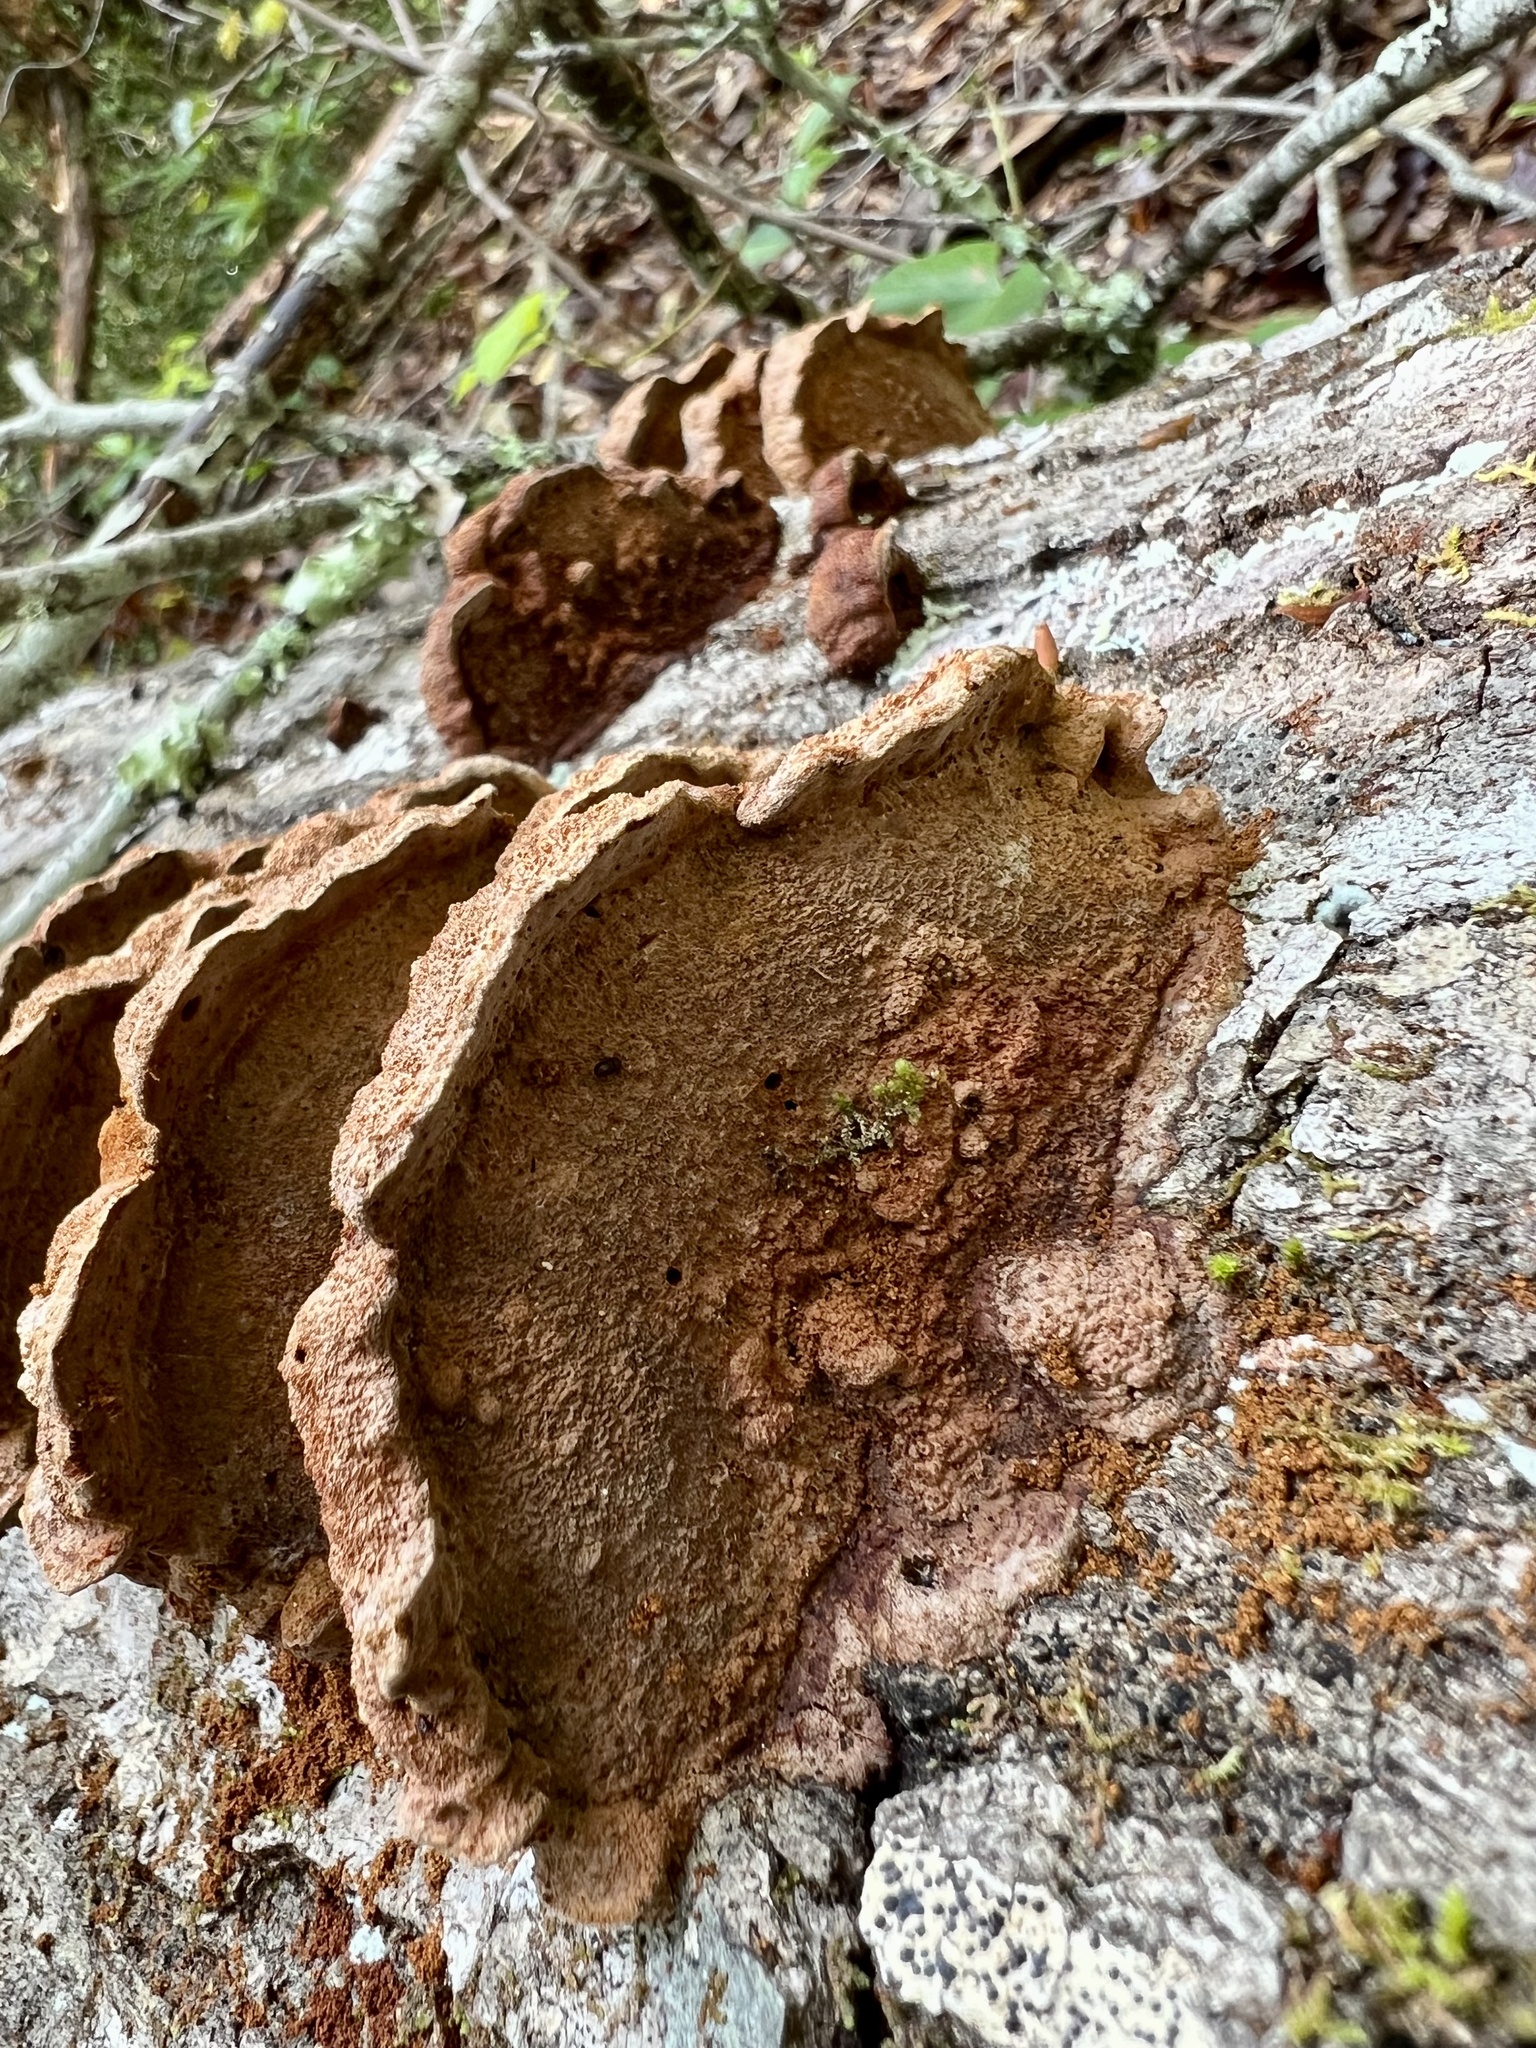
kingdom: Fungi
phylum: Basidiomycota
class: Agaricomycetes
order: Hymenochaetales
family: Hymenochaetaceae
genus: Phellinus
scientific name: Phellinus gilvus
